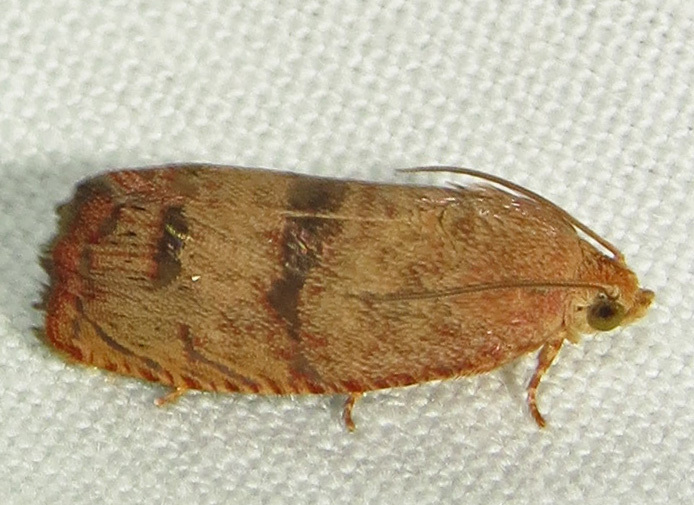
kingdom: Animalia
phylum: Arthropoda
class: Insecta
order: Lepidoptera
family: Tortricidae
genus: Cydia
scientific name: Cydia latiferreana
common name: Filbertworm moth
